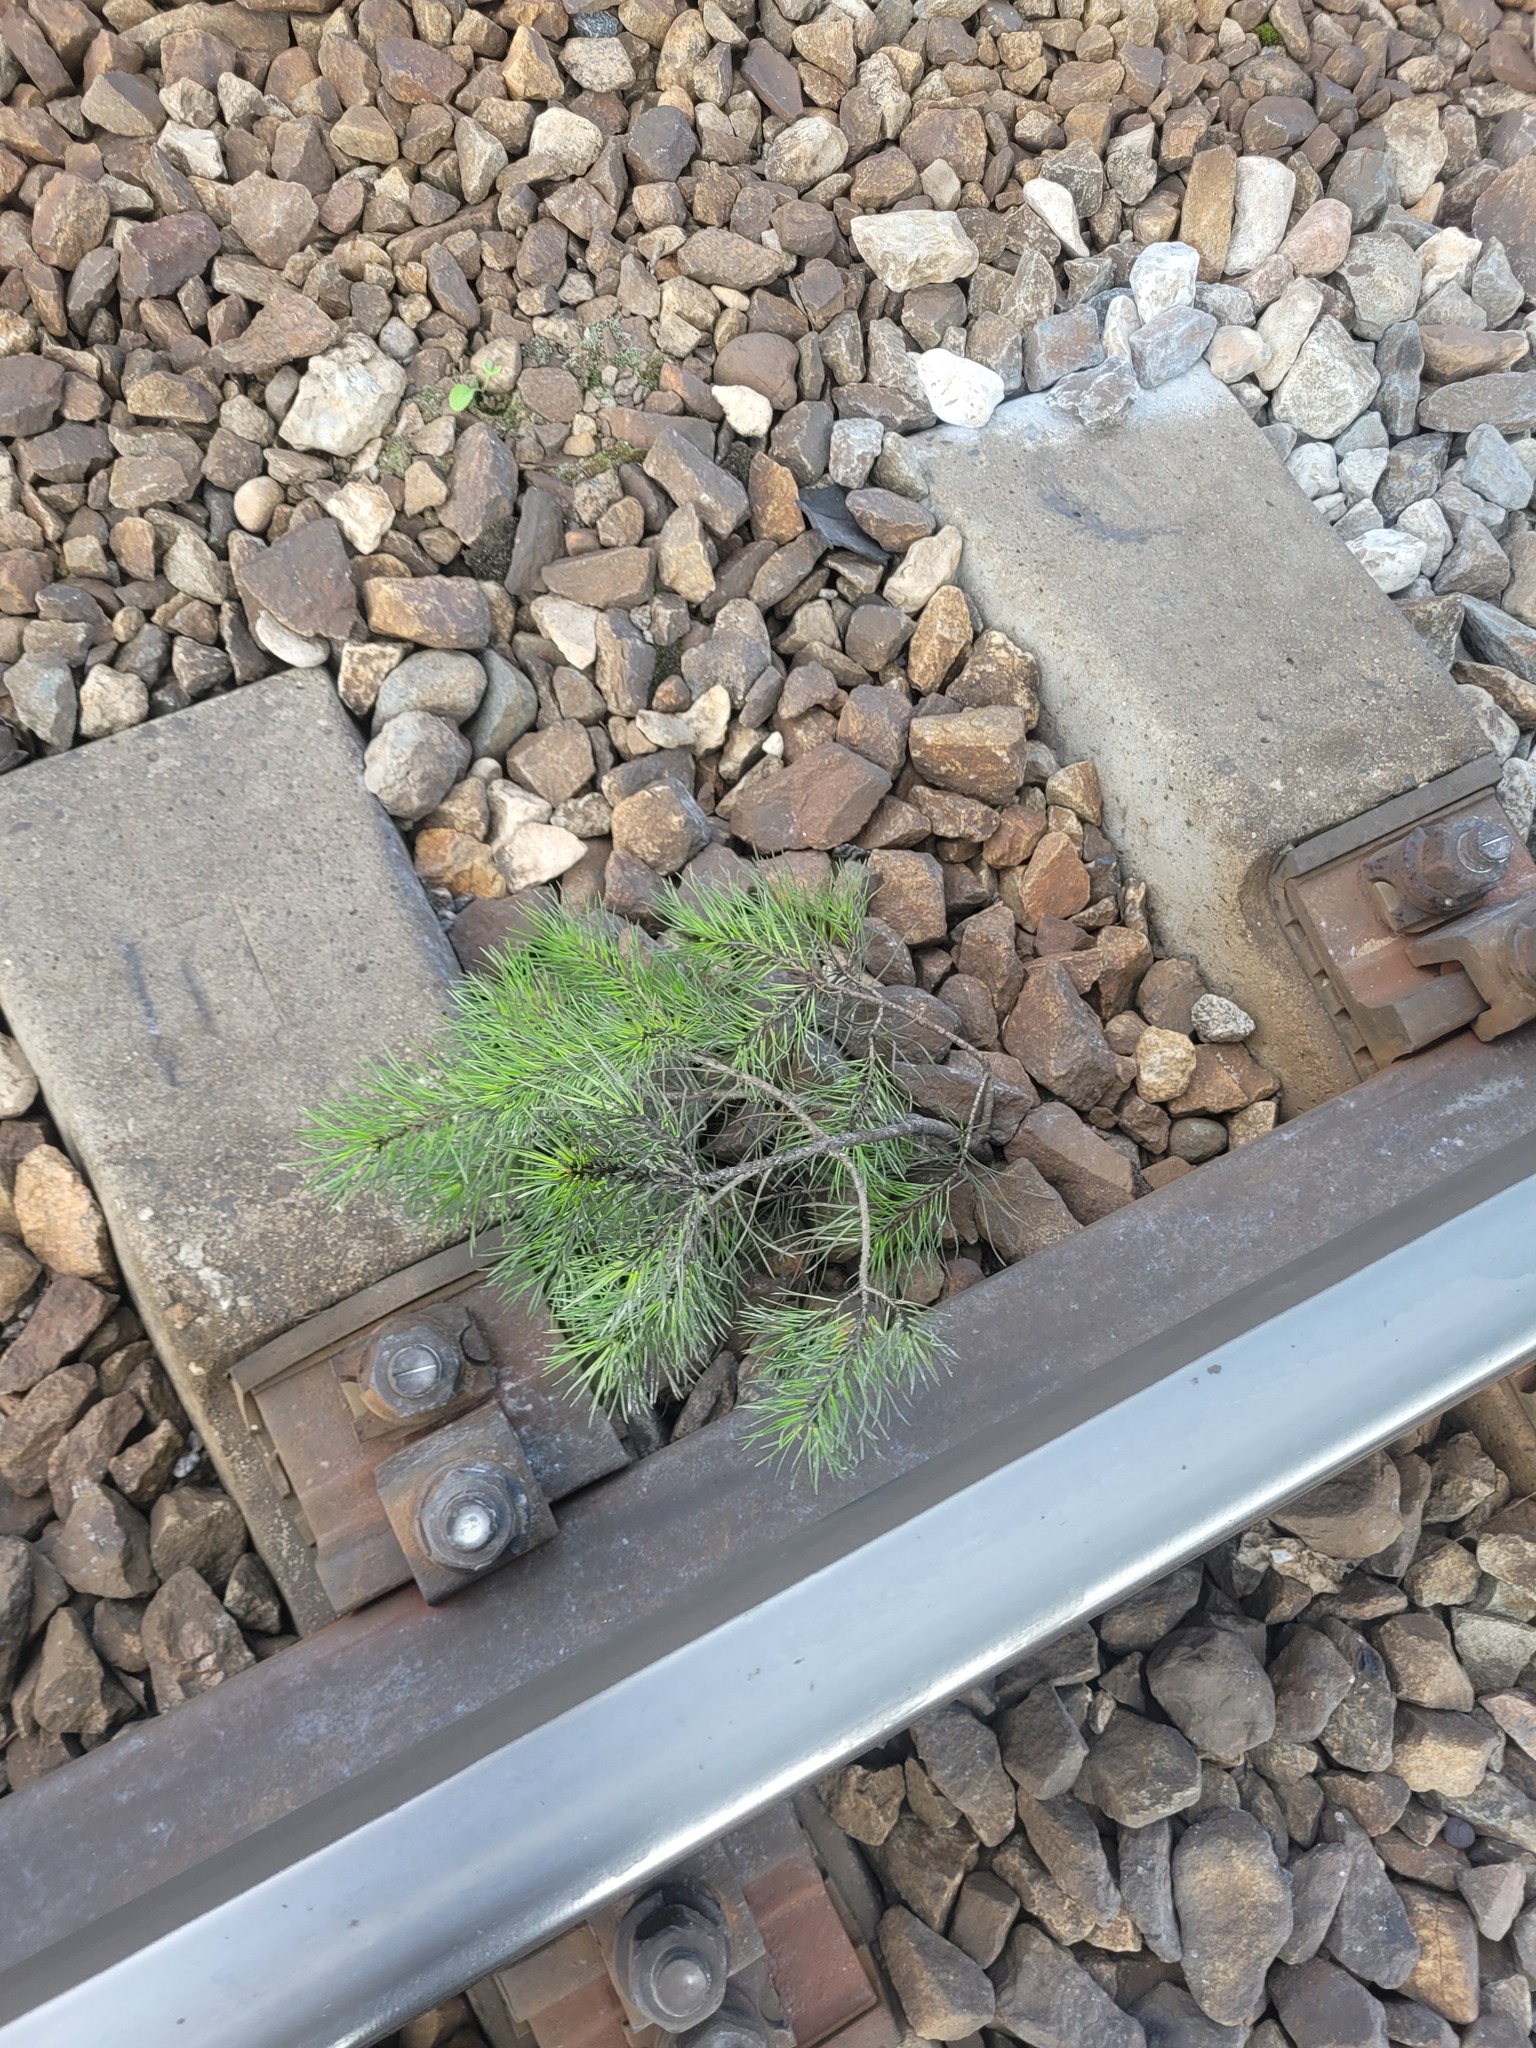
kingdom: Plantae
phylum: Tracheophyta
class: Pinopsida
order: Pinales
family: Pinaceae
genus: Pinus
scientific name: Pinus sylvestris
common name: Scots pine
